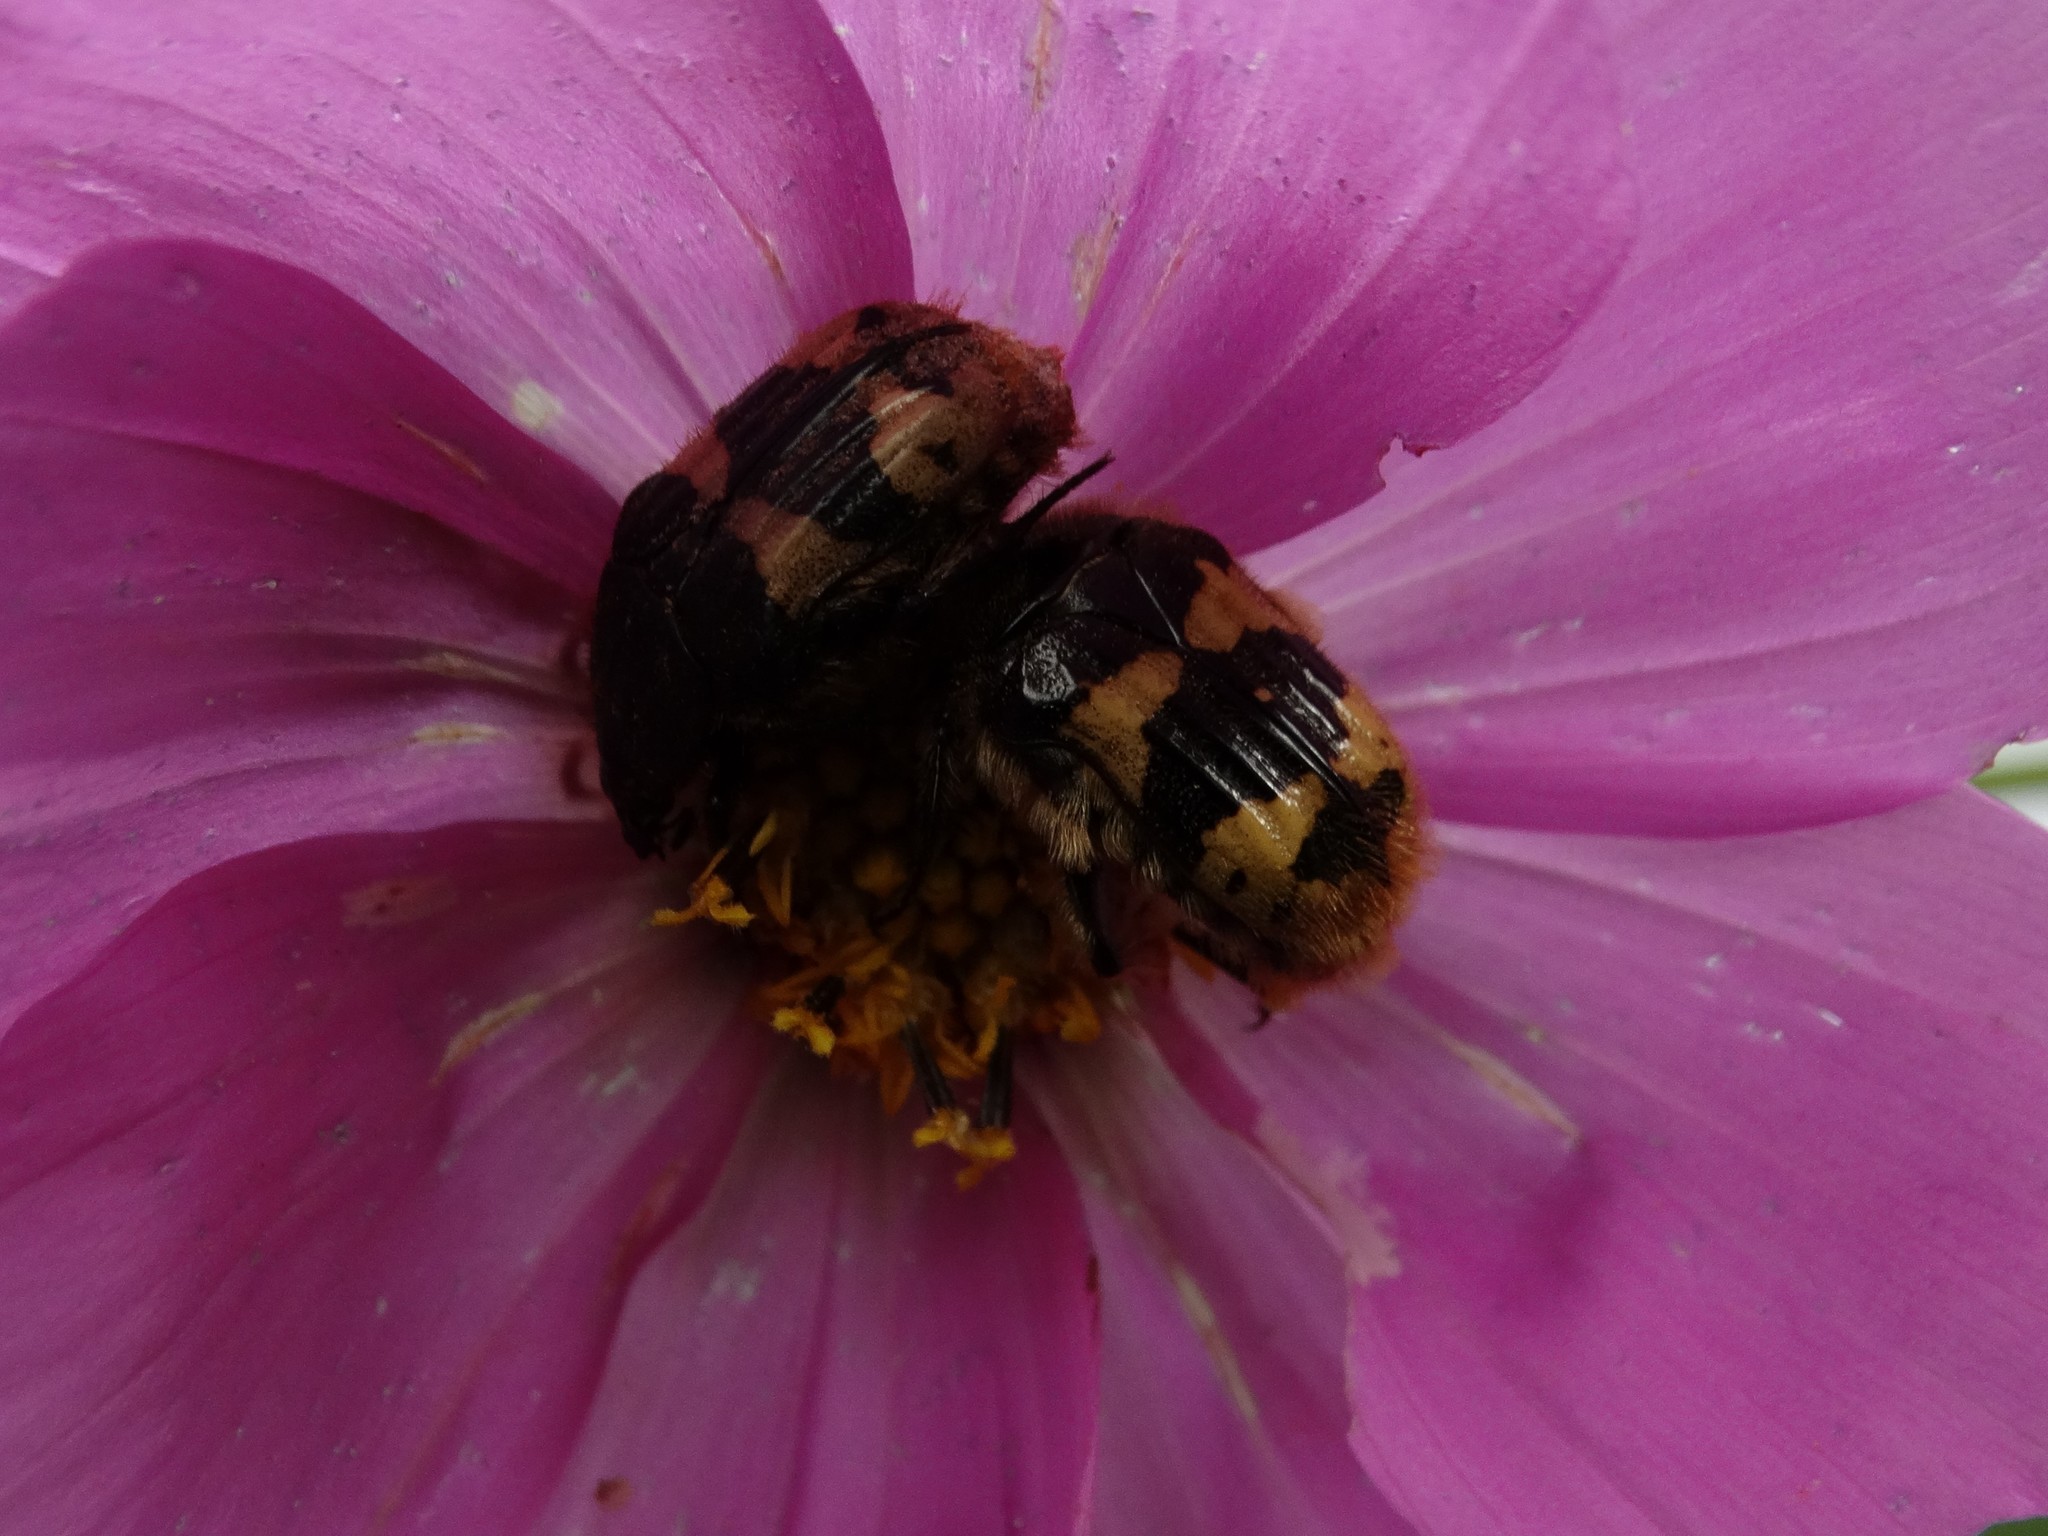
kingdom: Animalia
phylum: Arthropoda
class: Insecta
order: Coleoptera
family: Scarabaeidae
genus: Euphoria
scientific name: Euphoria basalis
